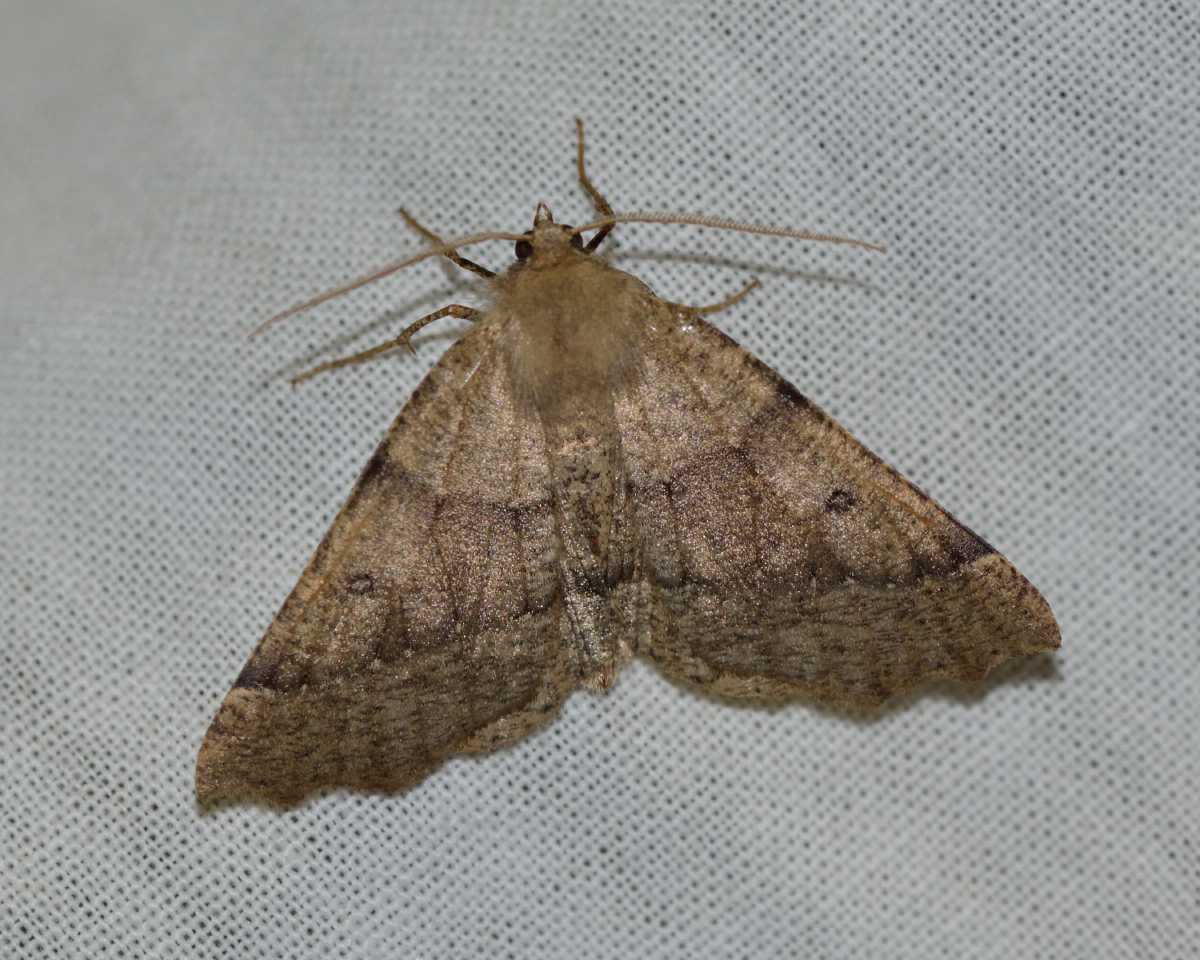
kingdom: Animalia
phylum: Arthropoda
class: Insecta
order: Lepidoptera
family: Geometridae
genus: Odontopera
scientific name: Odontopera bidentata
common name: Scalloped hazel
